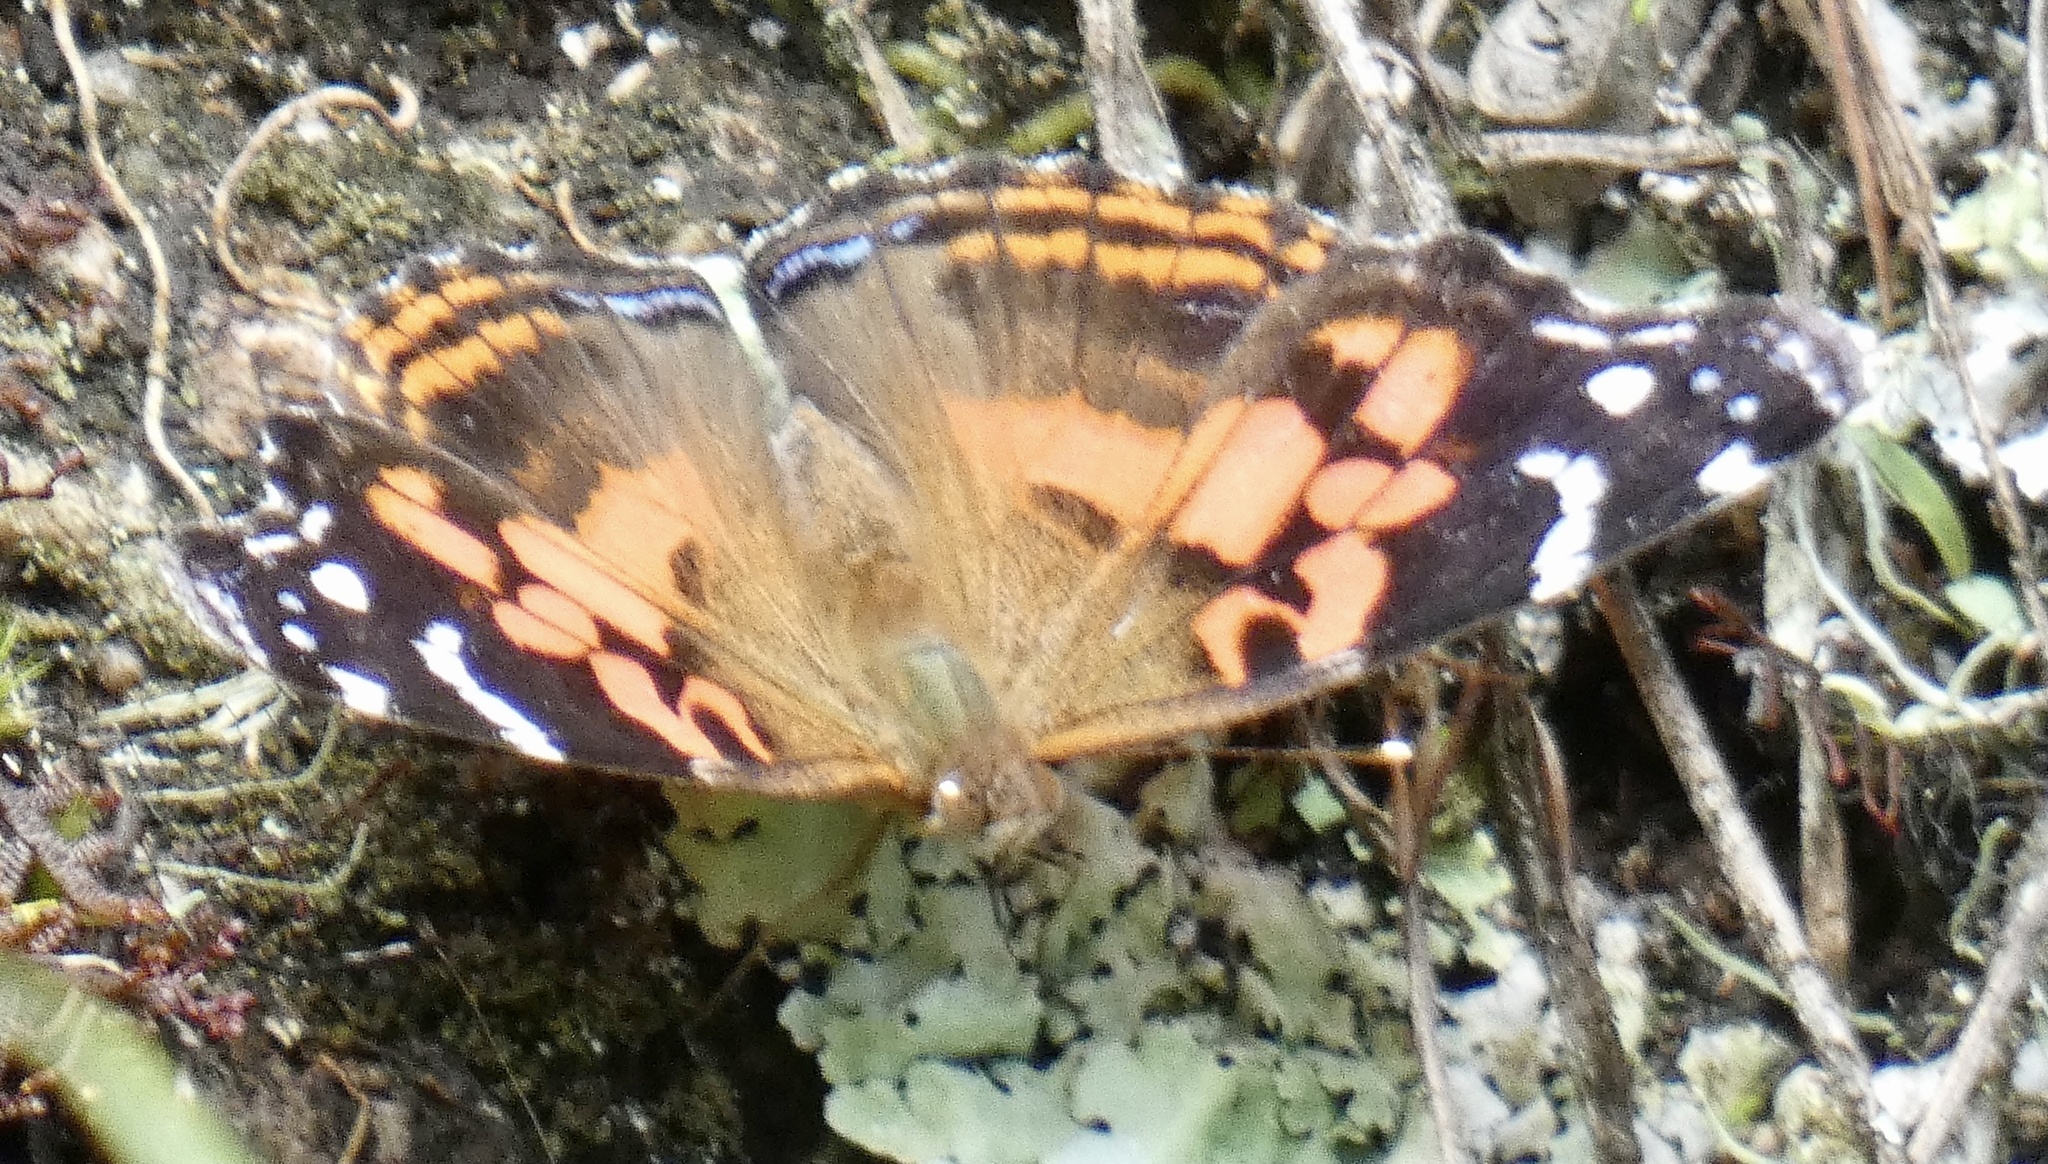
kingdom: Animalia
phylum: Arthropoda
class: Insecta
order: Lepidoptera
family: Nymphalidae
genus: Vanessa
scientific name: Vanessa myrinna
